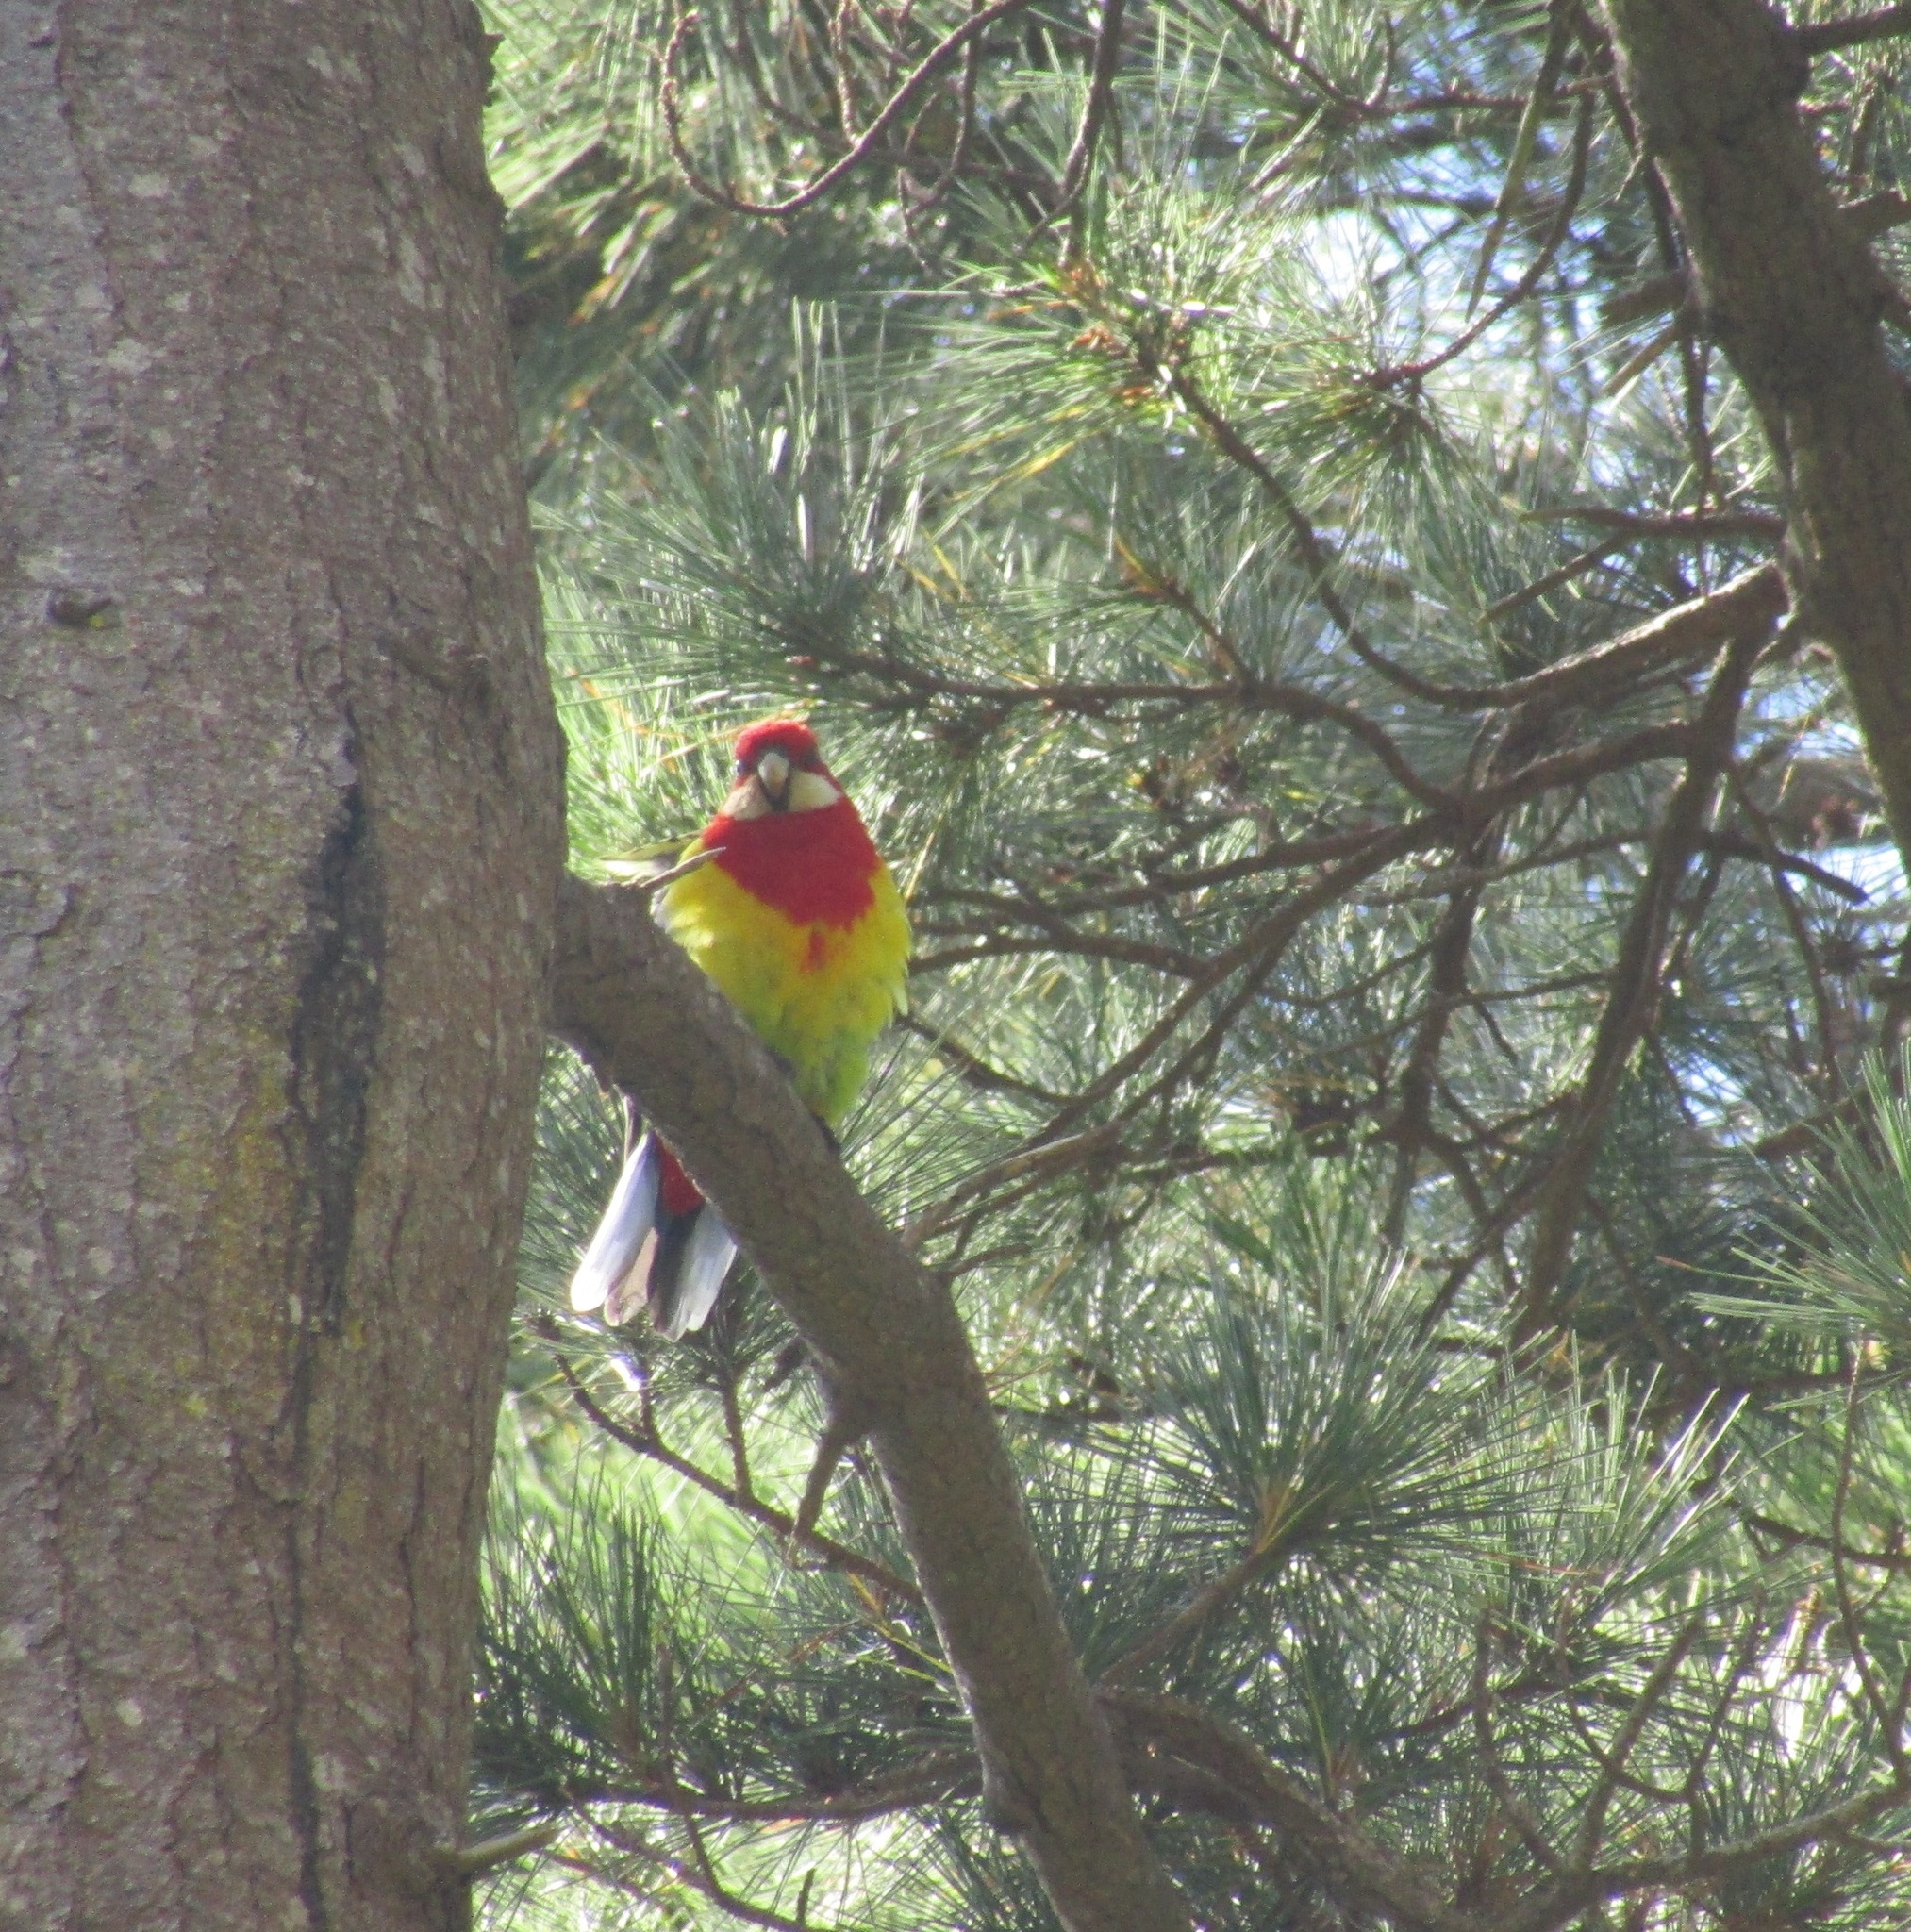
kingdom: Animalia
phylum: Chordata
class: Aves
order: Psittaciformes
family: Psittacidae
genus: Platycercus
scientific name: Platycercus eximius
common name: Eastern rosella
